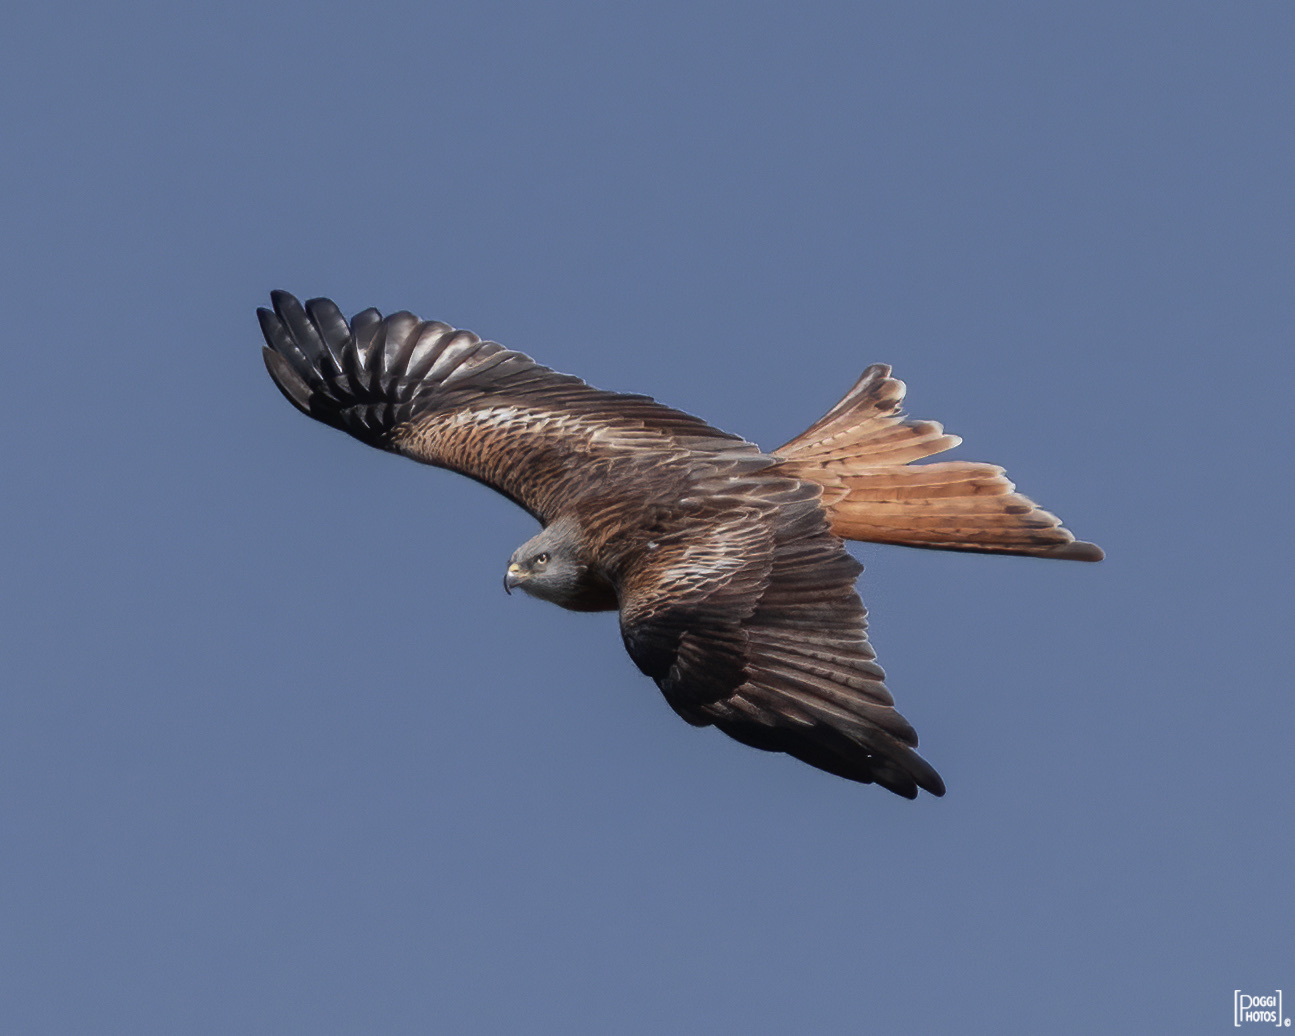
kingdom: Animalia
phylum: Chordata
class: Aves
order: Accipitriformes
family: Accipitridae
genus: Milvus
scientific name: Milvus milvus
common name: Red kite
